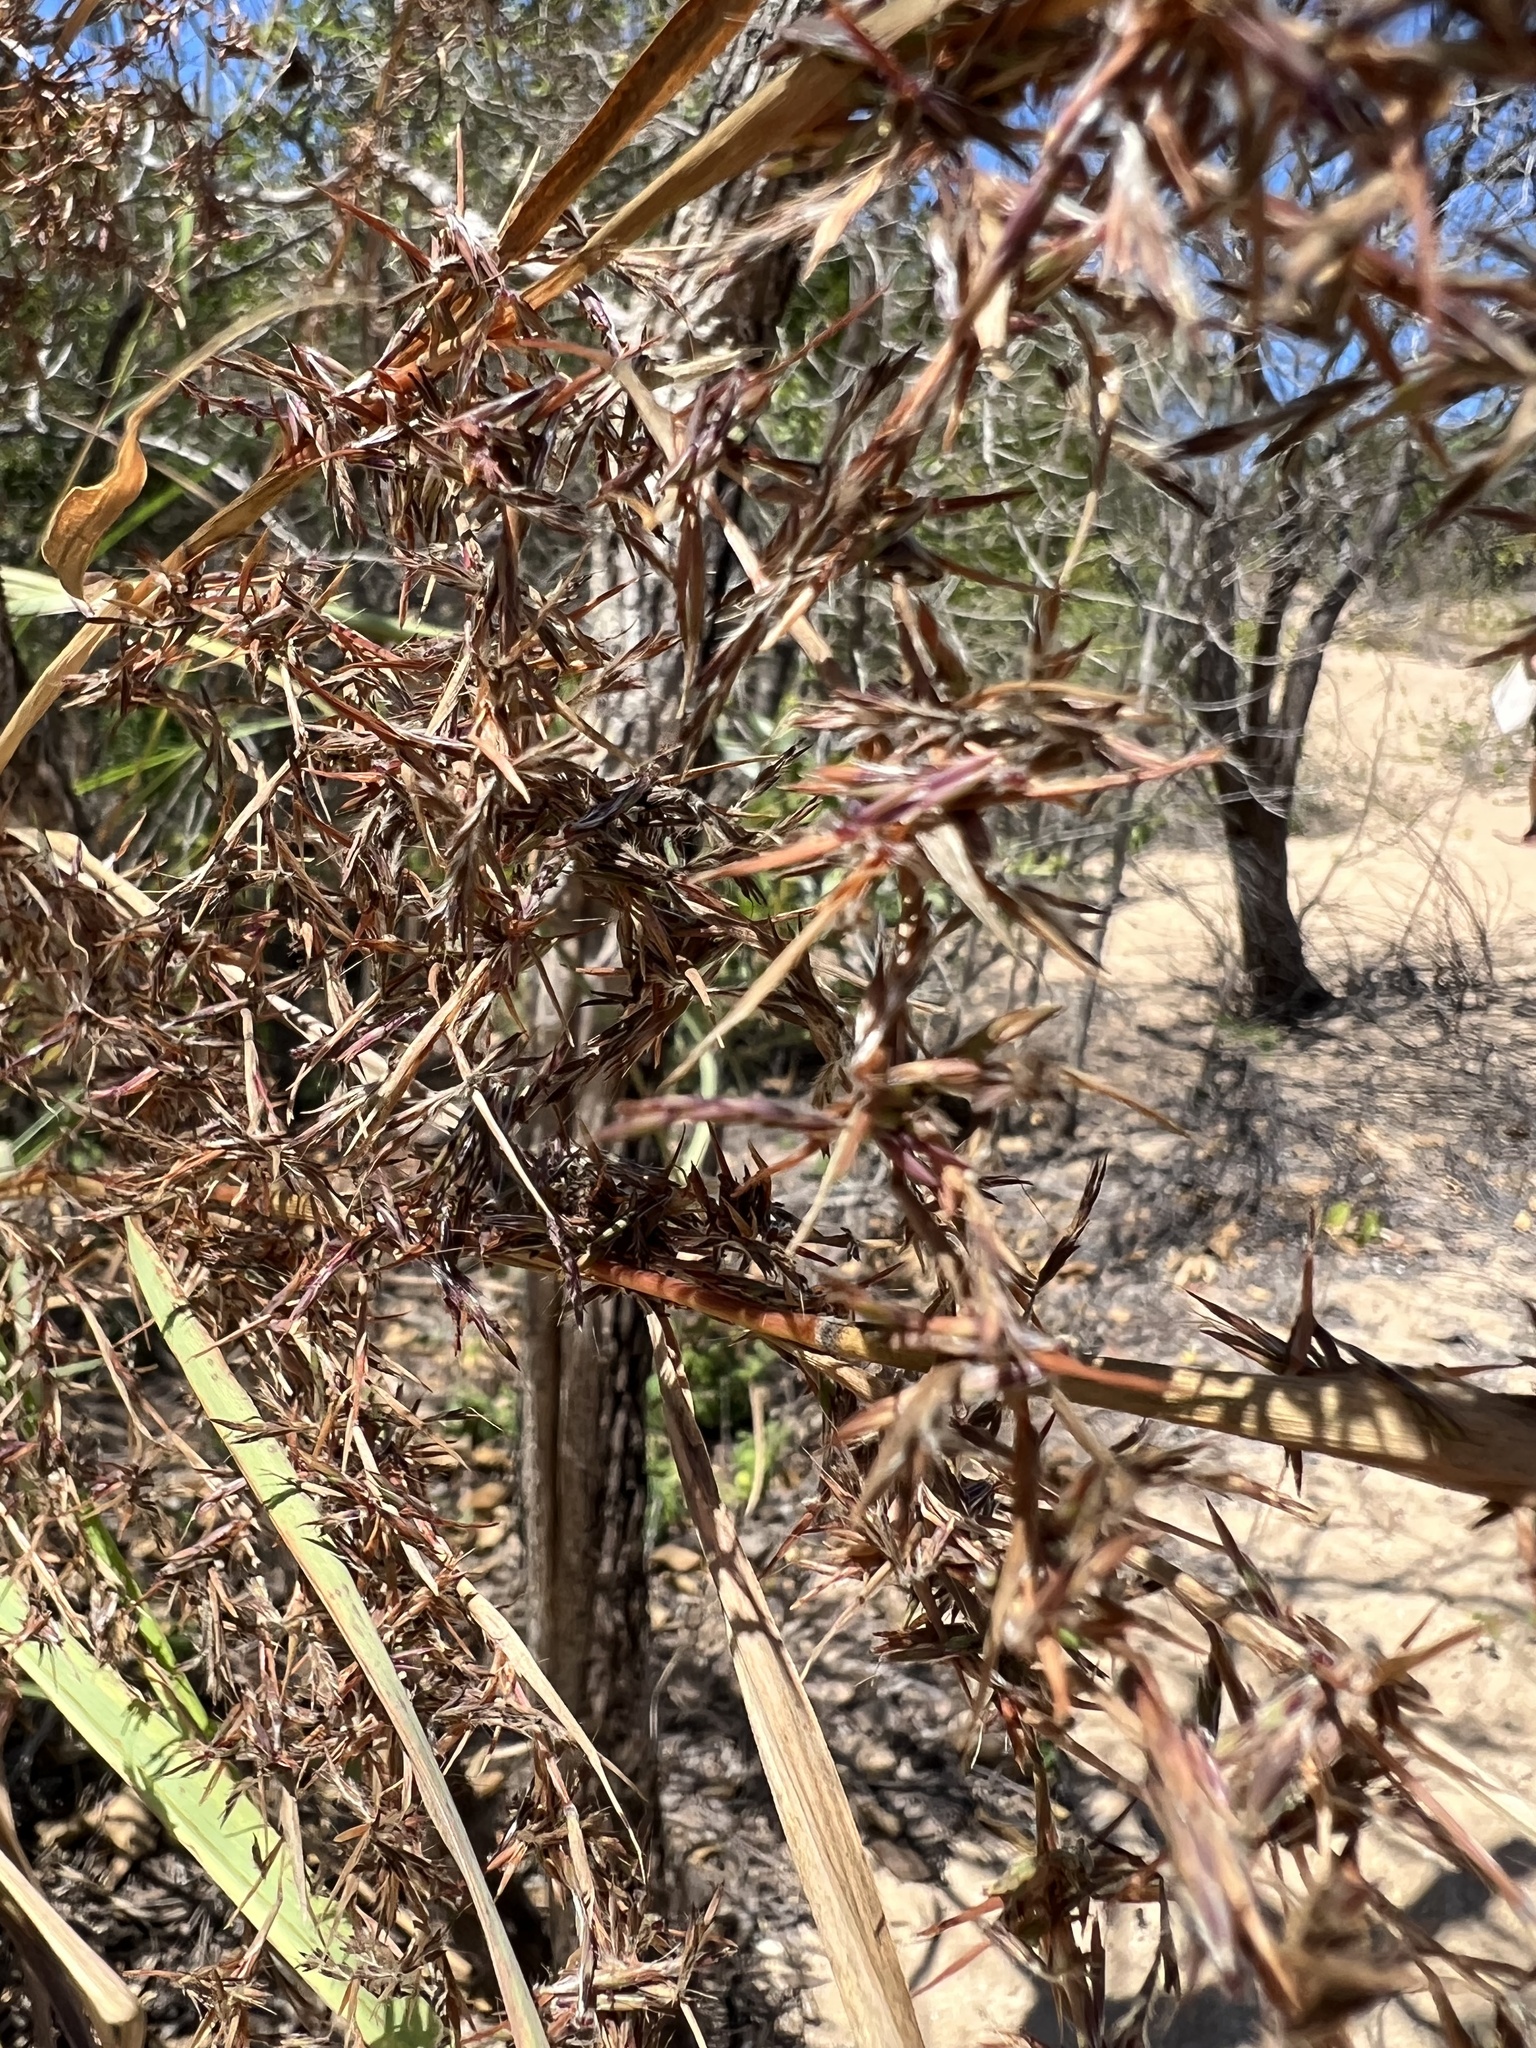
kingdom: Plantae
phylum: Tracheophyta
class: Liliopsida
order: Poales
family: Poaceae
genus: Cymbopogon
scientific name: Cymbopogon nardus
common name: Giant turpentine grass
